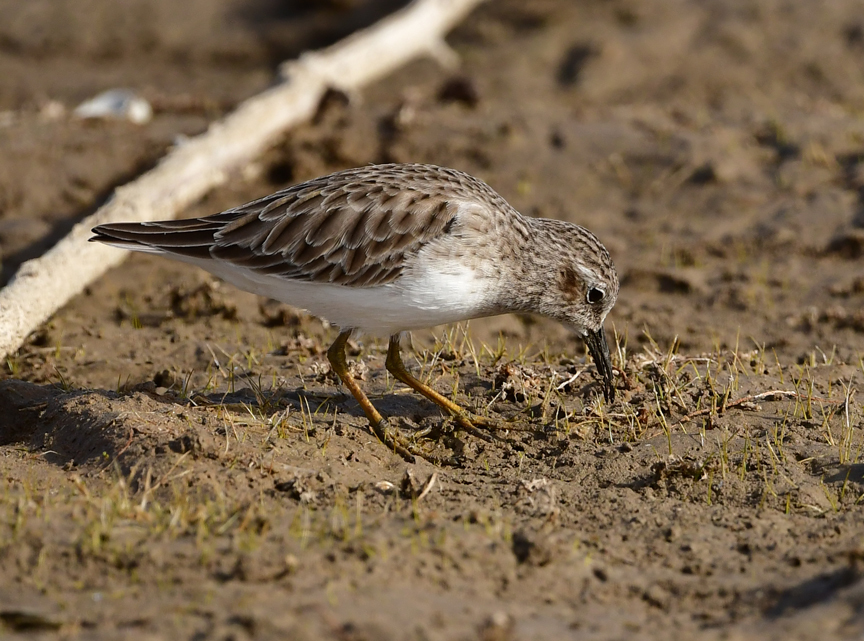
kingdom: Animalia
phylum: Chordata
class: Aves
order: Charadriiformes
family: Scolopacidae
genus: Calidris
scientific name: Calidris minutilla
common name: Least sandpiper
